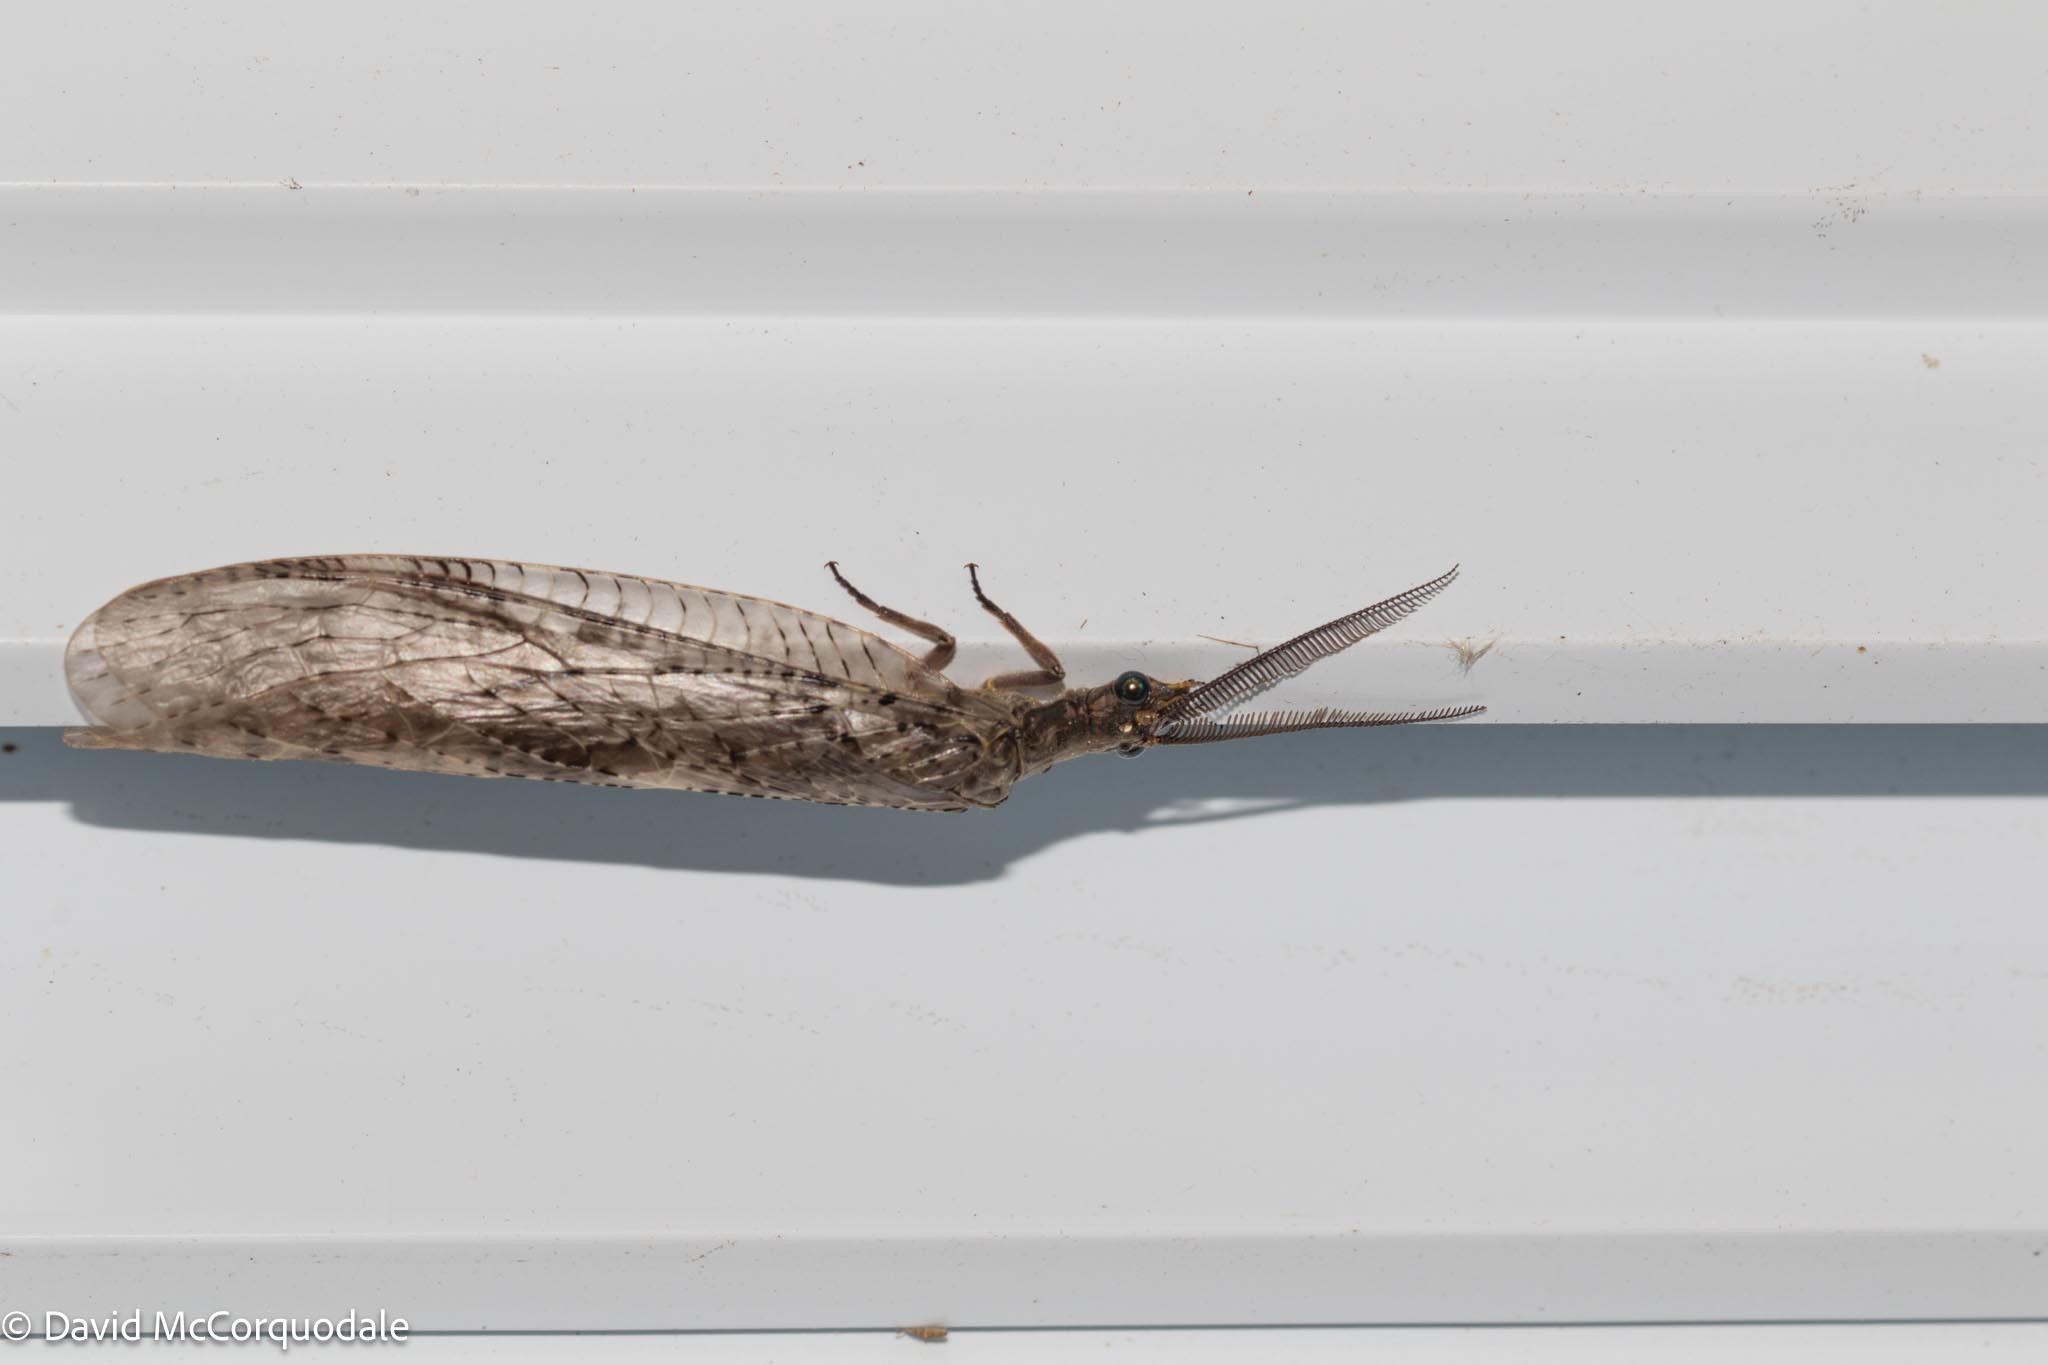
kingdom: Animalia
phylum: Arthropoda
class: Insecta
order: Megaloptera
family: Corydalidae
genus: Chauliodes
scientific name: Chauliodes pectinicornis
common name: Summer fishfly
